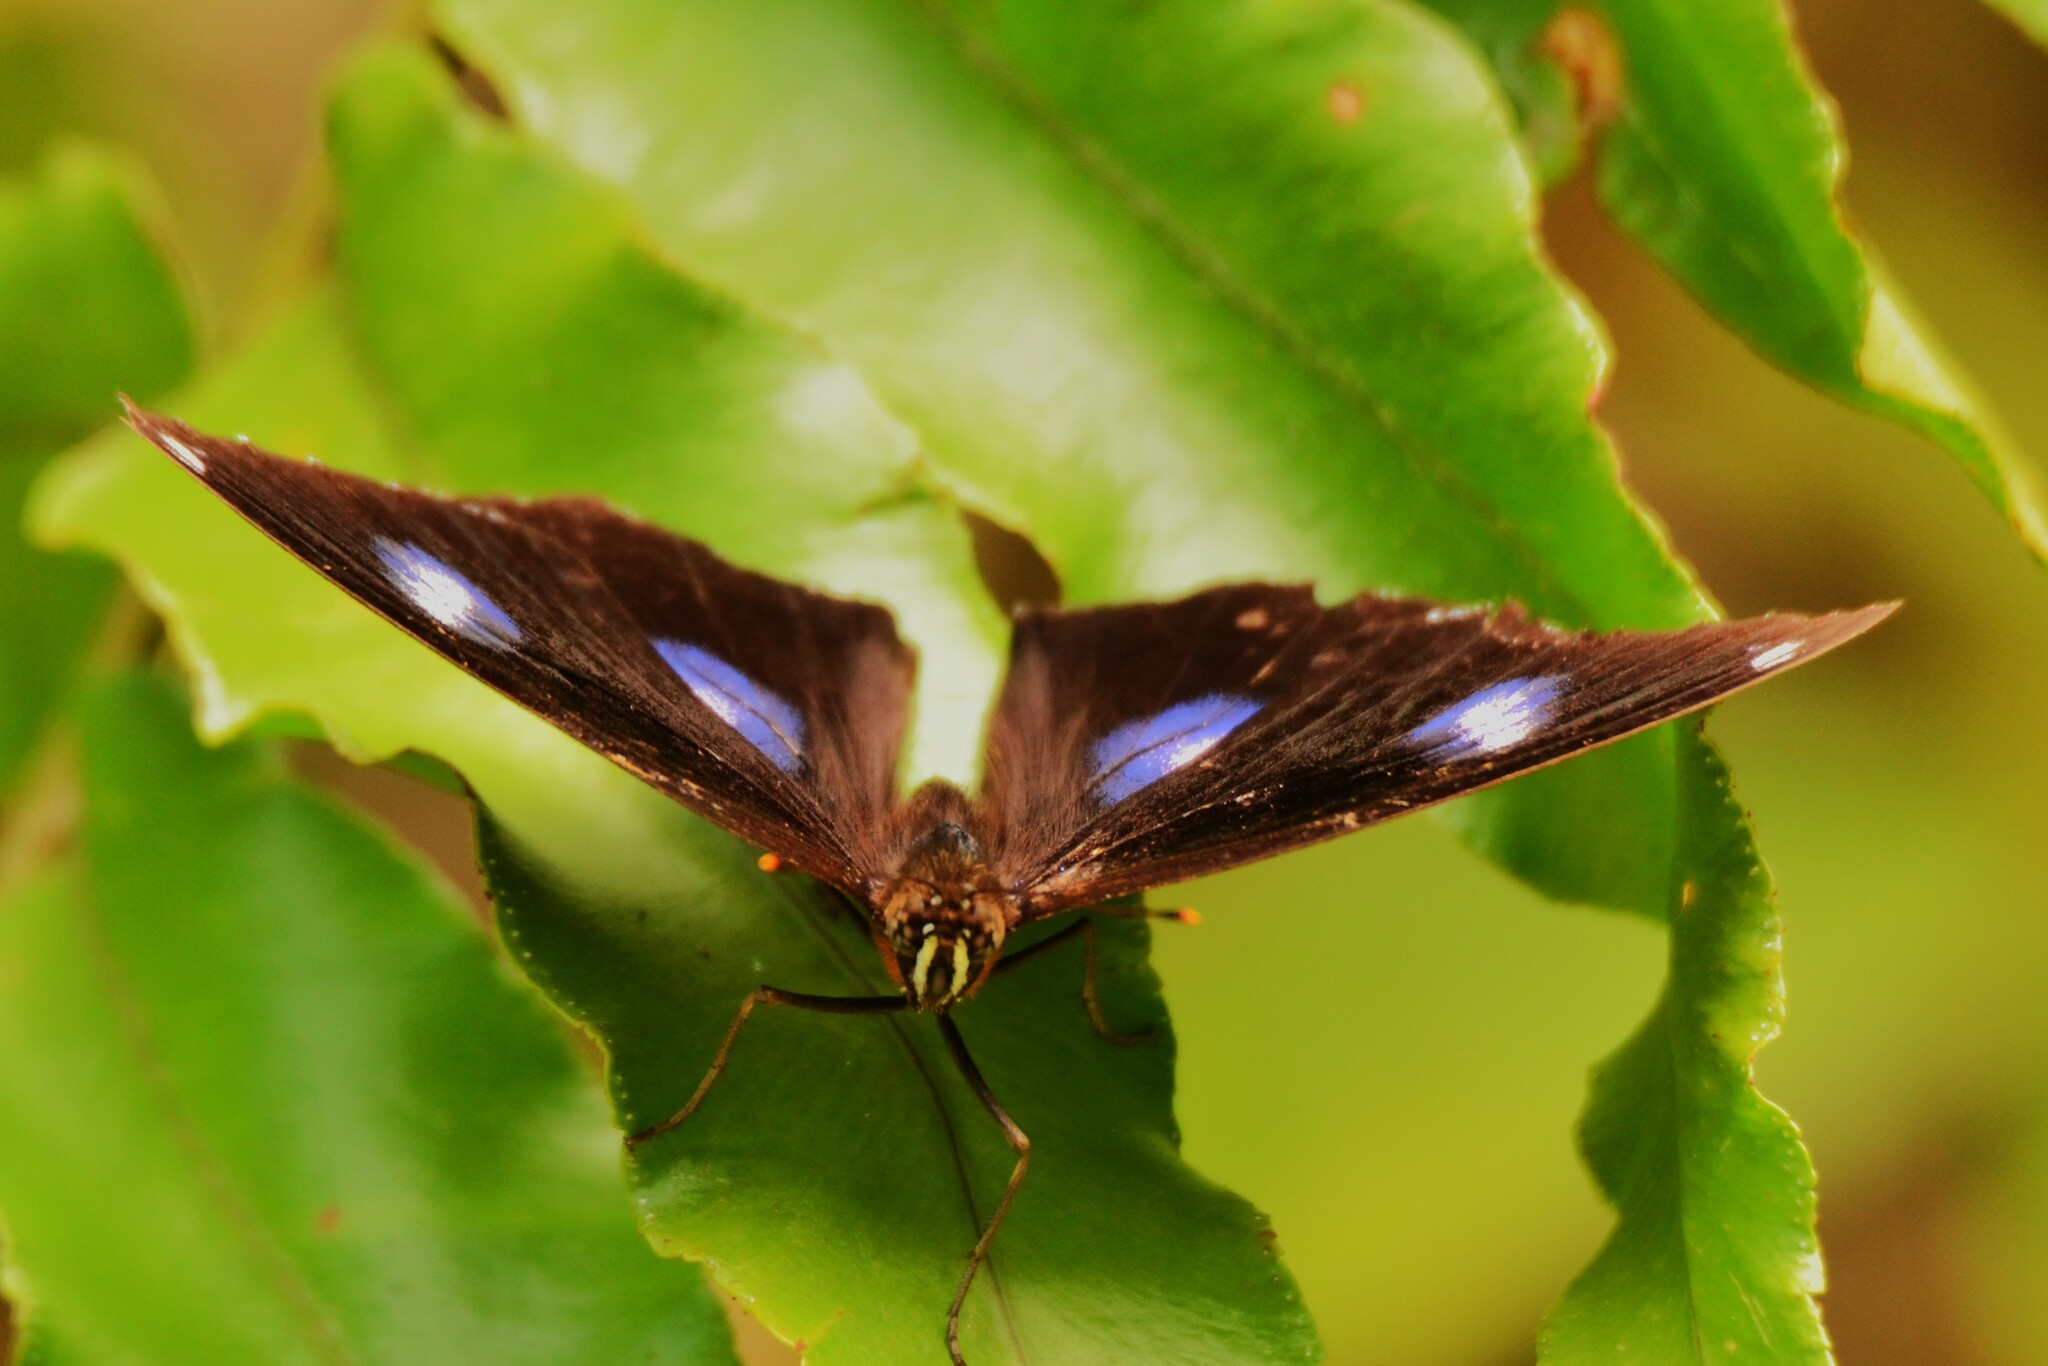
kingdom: Animalia
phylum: Arthropoda
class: Insecta
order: Lepidoptera
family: Nymphalidae
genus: Hypolimnas
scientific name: Hypolimnas bolina
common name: Great eggfly
